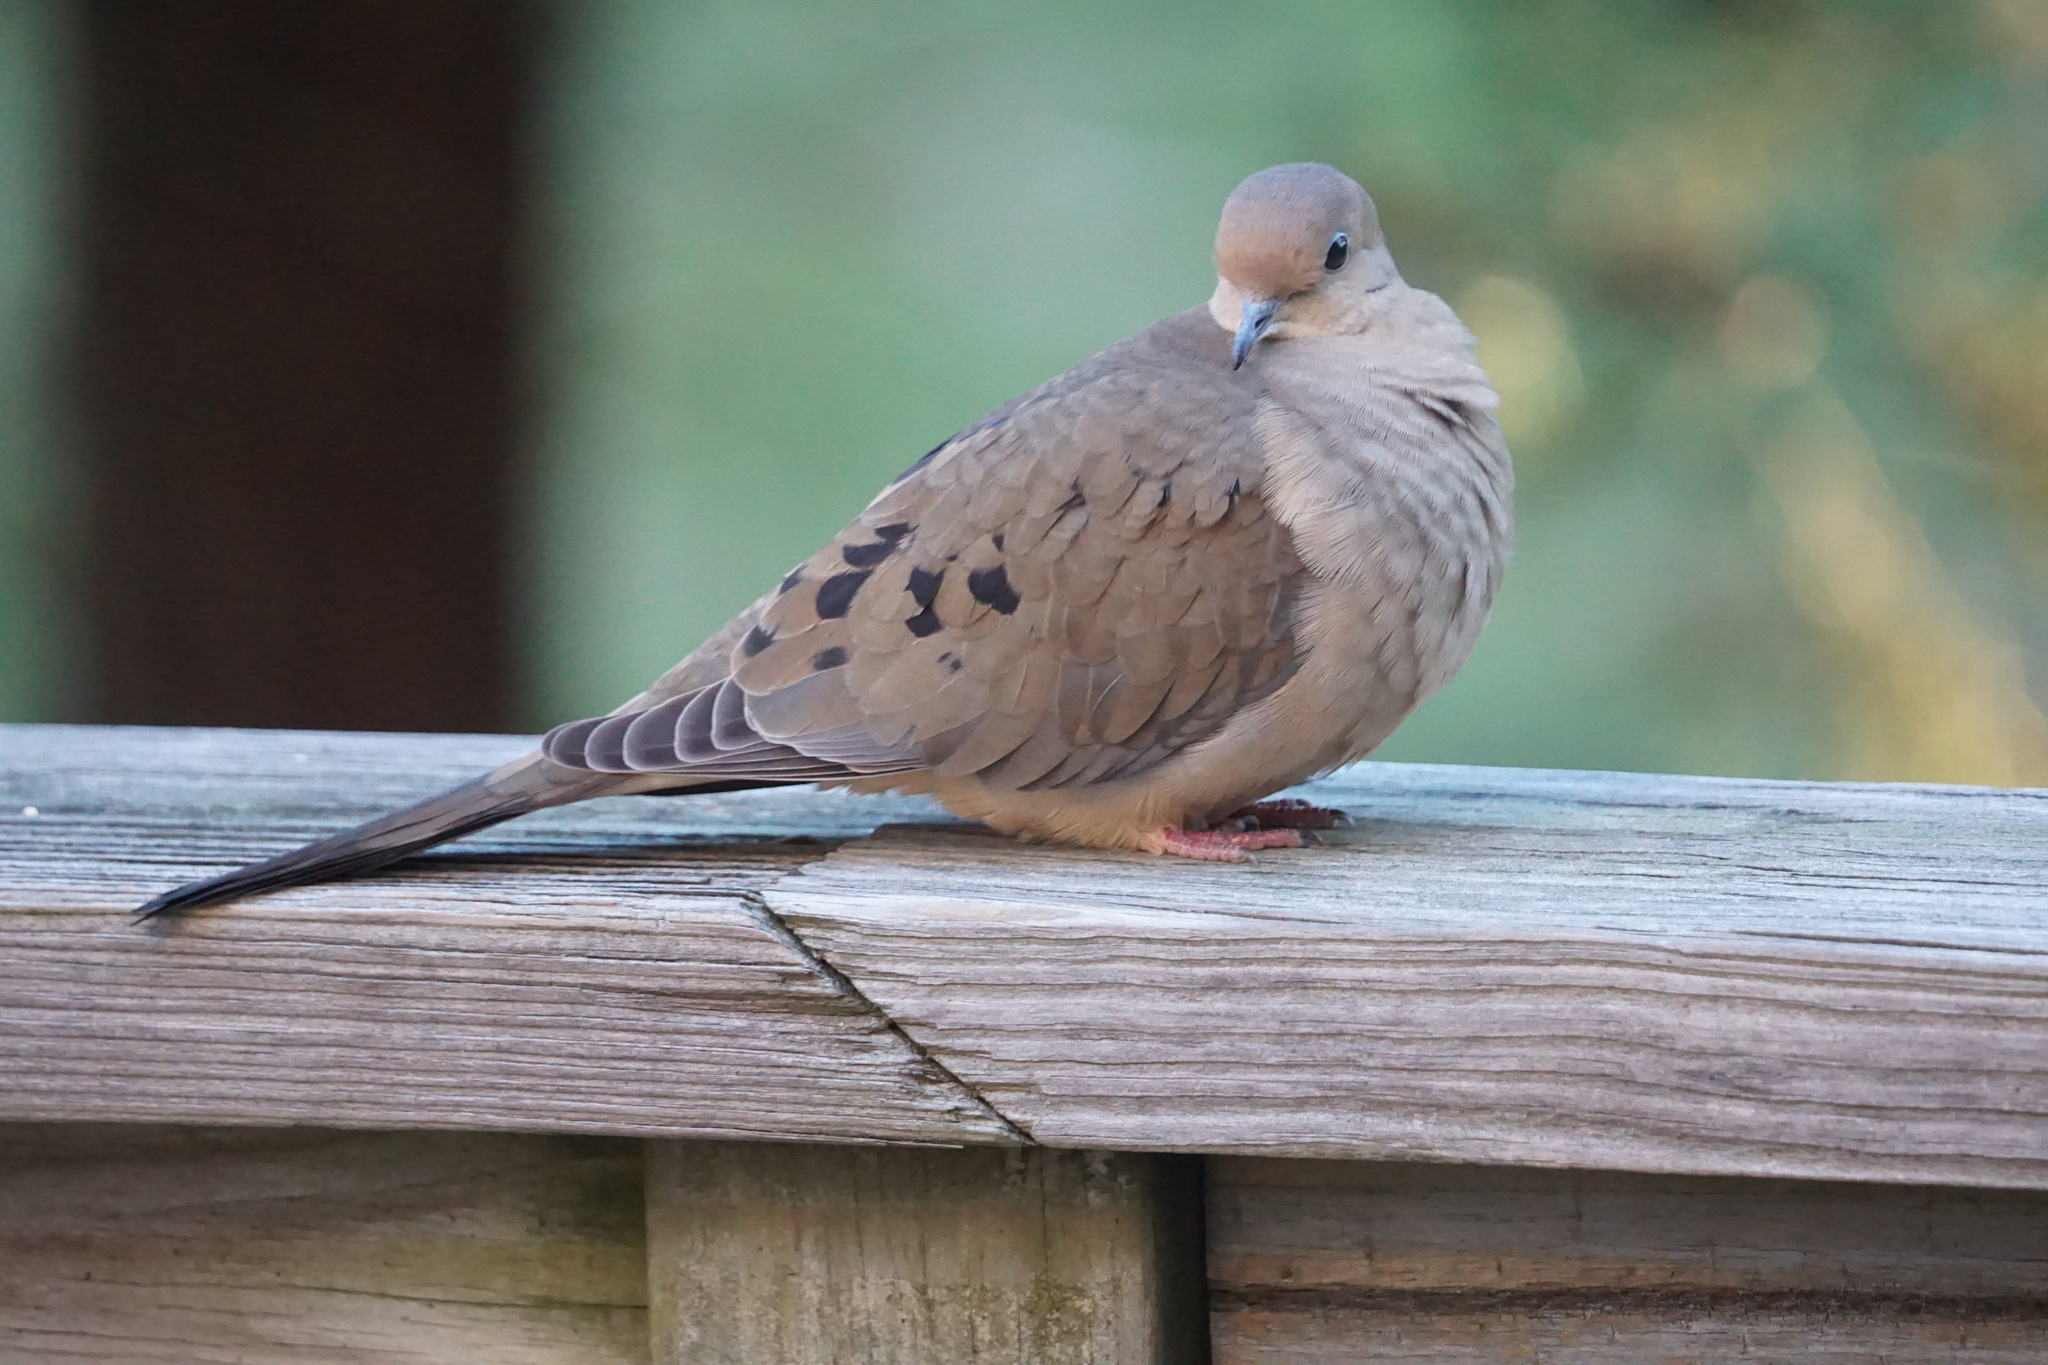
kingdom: Animalia
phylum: Chordata
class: Aves
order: Columbiformes
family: Columbidae
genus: Zenaida
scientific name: Zenaida macroura
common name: Mourning dove
